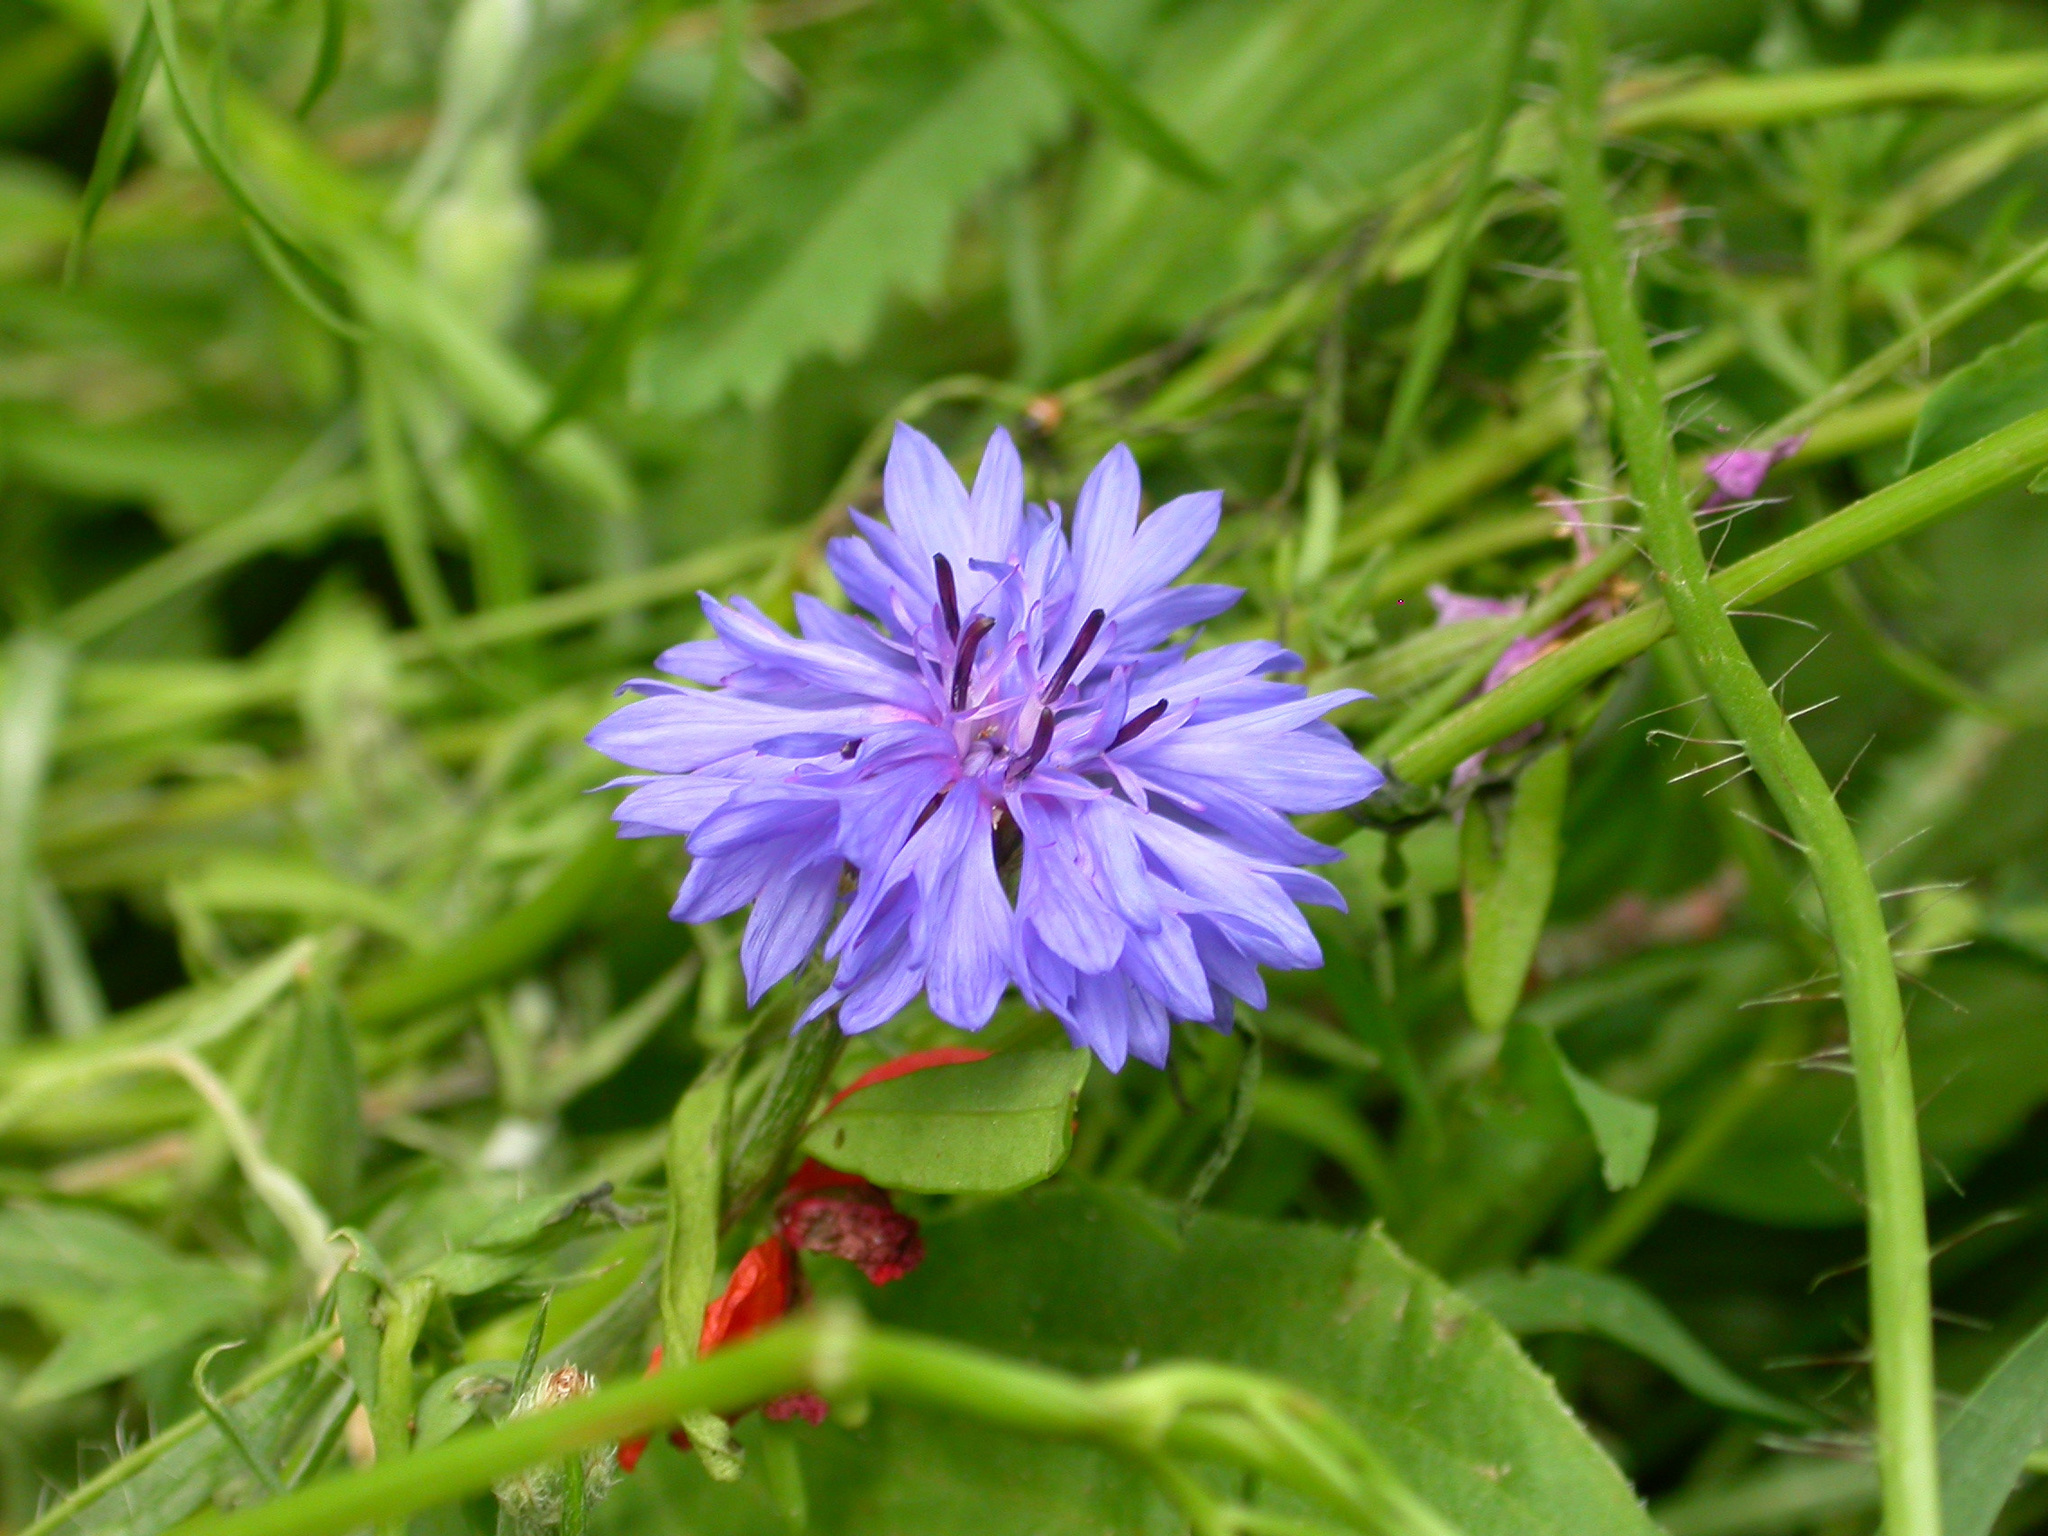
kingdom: Plantae
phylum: Tracheophyta
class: Magnoliopsida
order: Asterales
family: Asteraceae
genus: Centaurea
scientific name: Centaurea cyanus
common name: Cornflower
